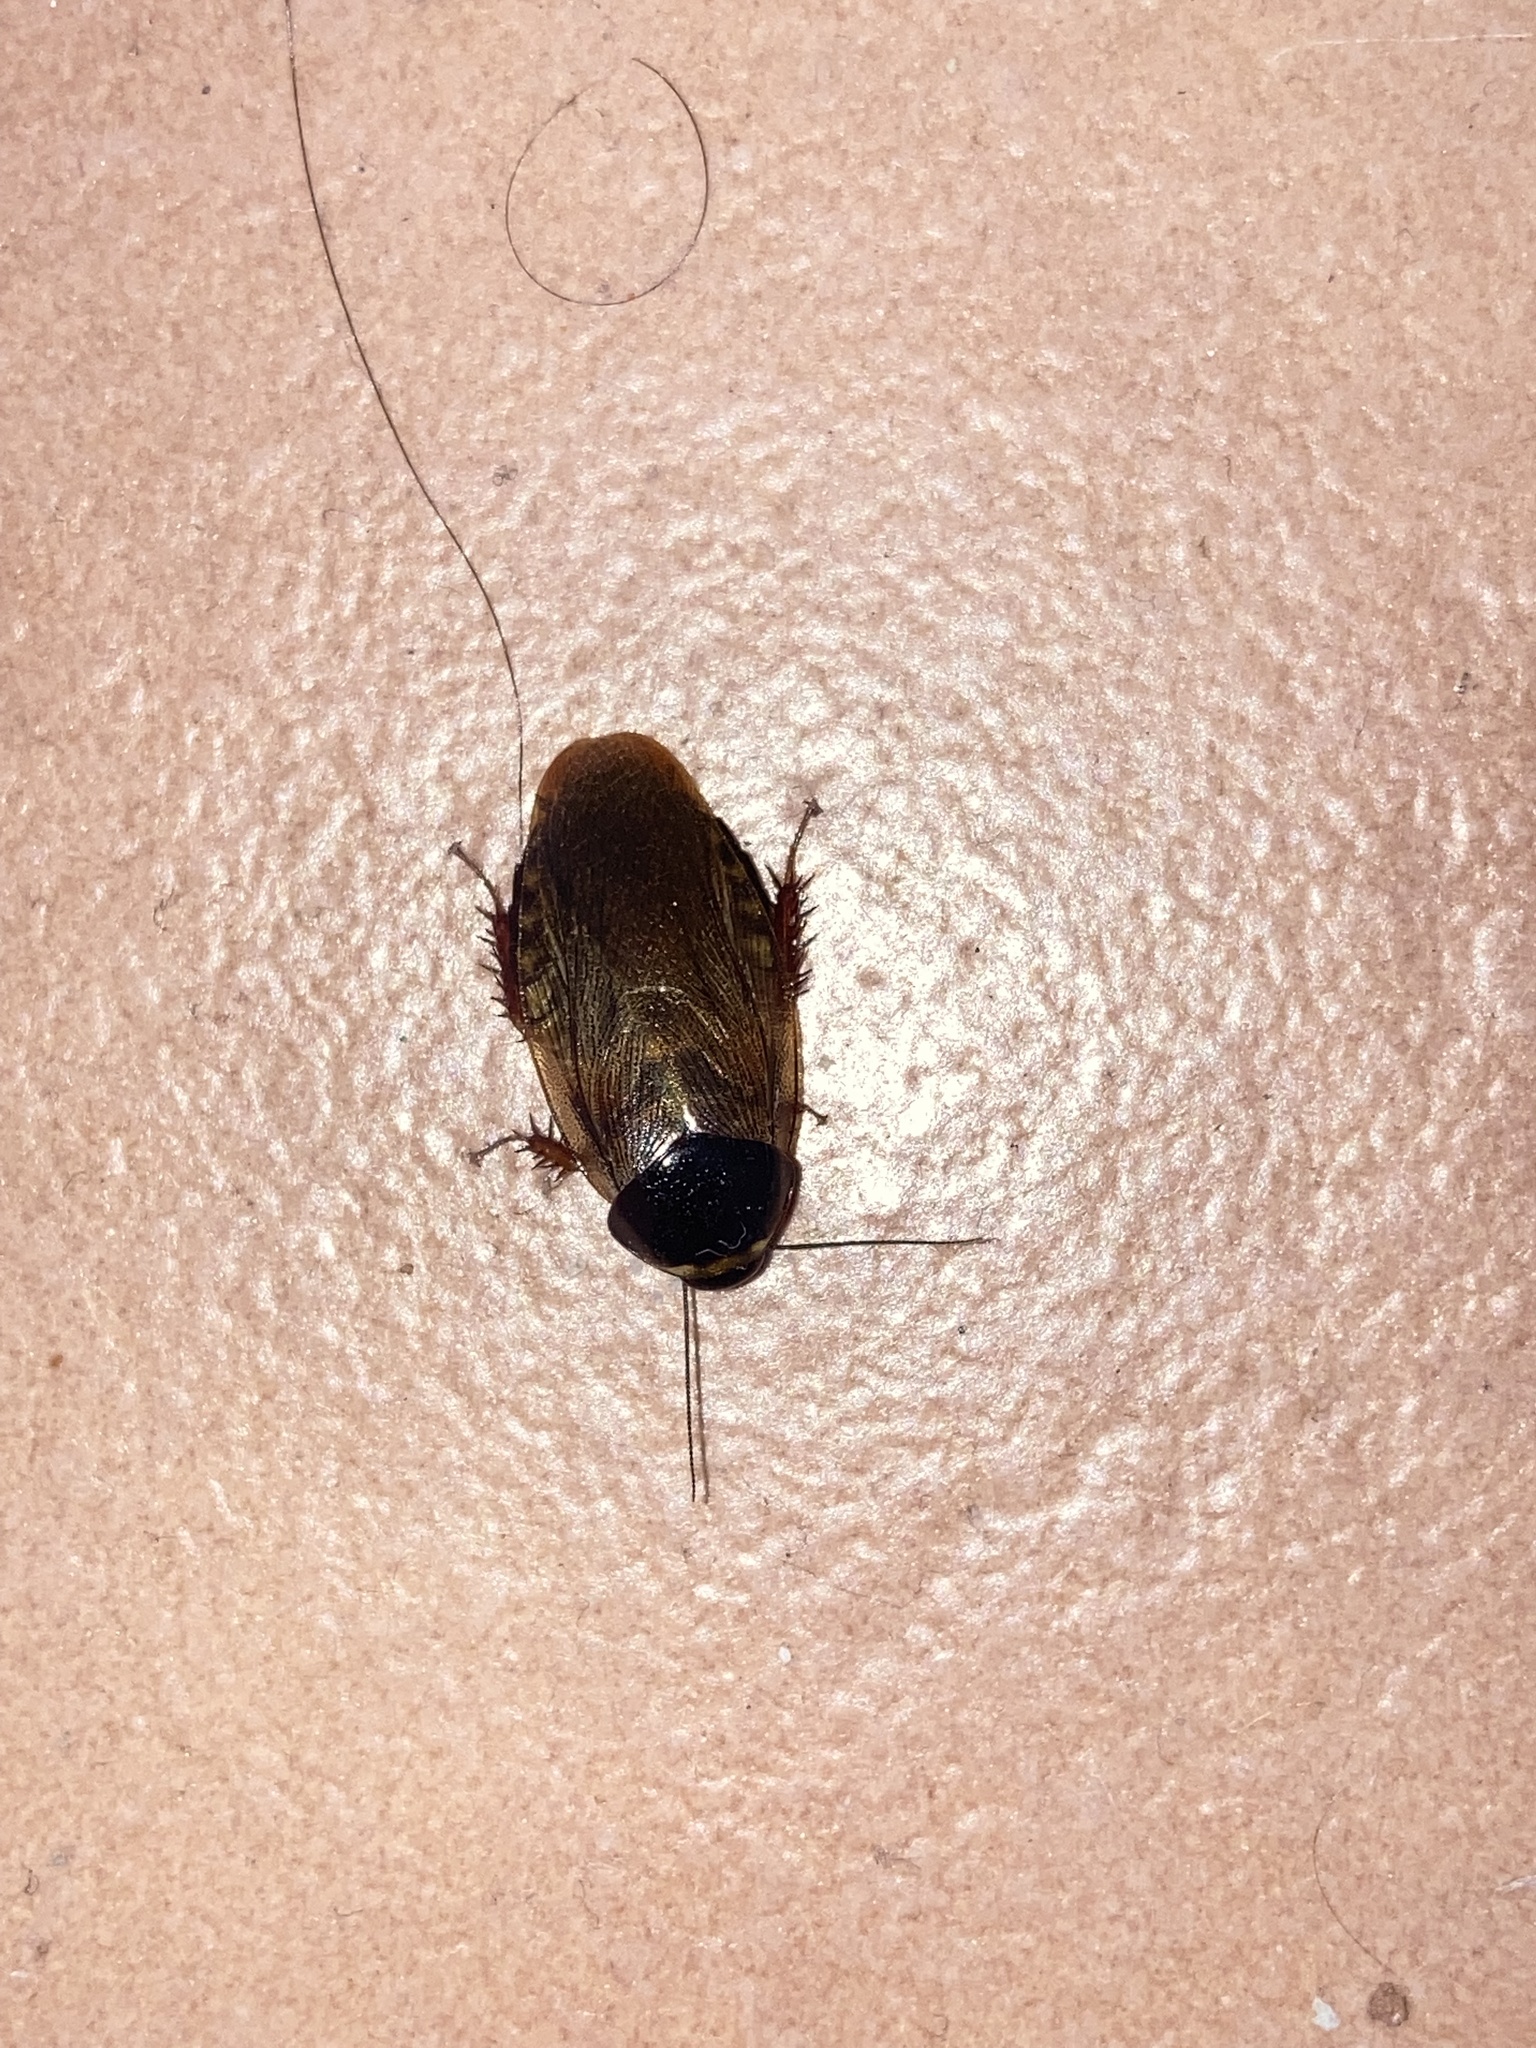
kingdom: Animalia
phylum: Arthropoda
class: Insecta
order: Blattodea
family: Blaberidae
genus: Pycnoscelus
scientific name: Pycnoscelus surinamensis
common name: Surinam cockroach
